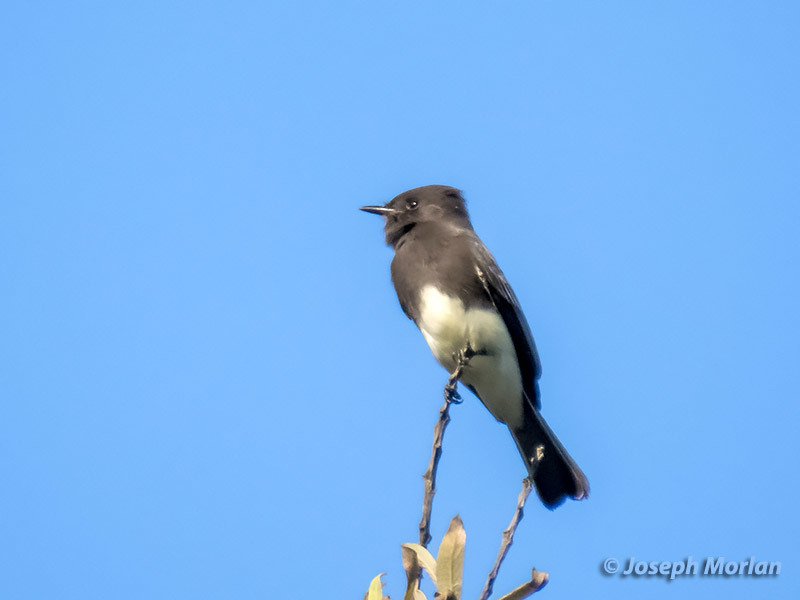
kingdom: Animalia
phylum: Chordata
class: Aves
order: Passeriformes
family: Tyrannidae
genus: Sayornis
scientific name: Sayornis nigricans
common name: Black phoebe
